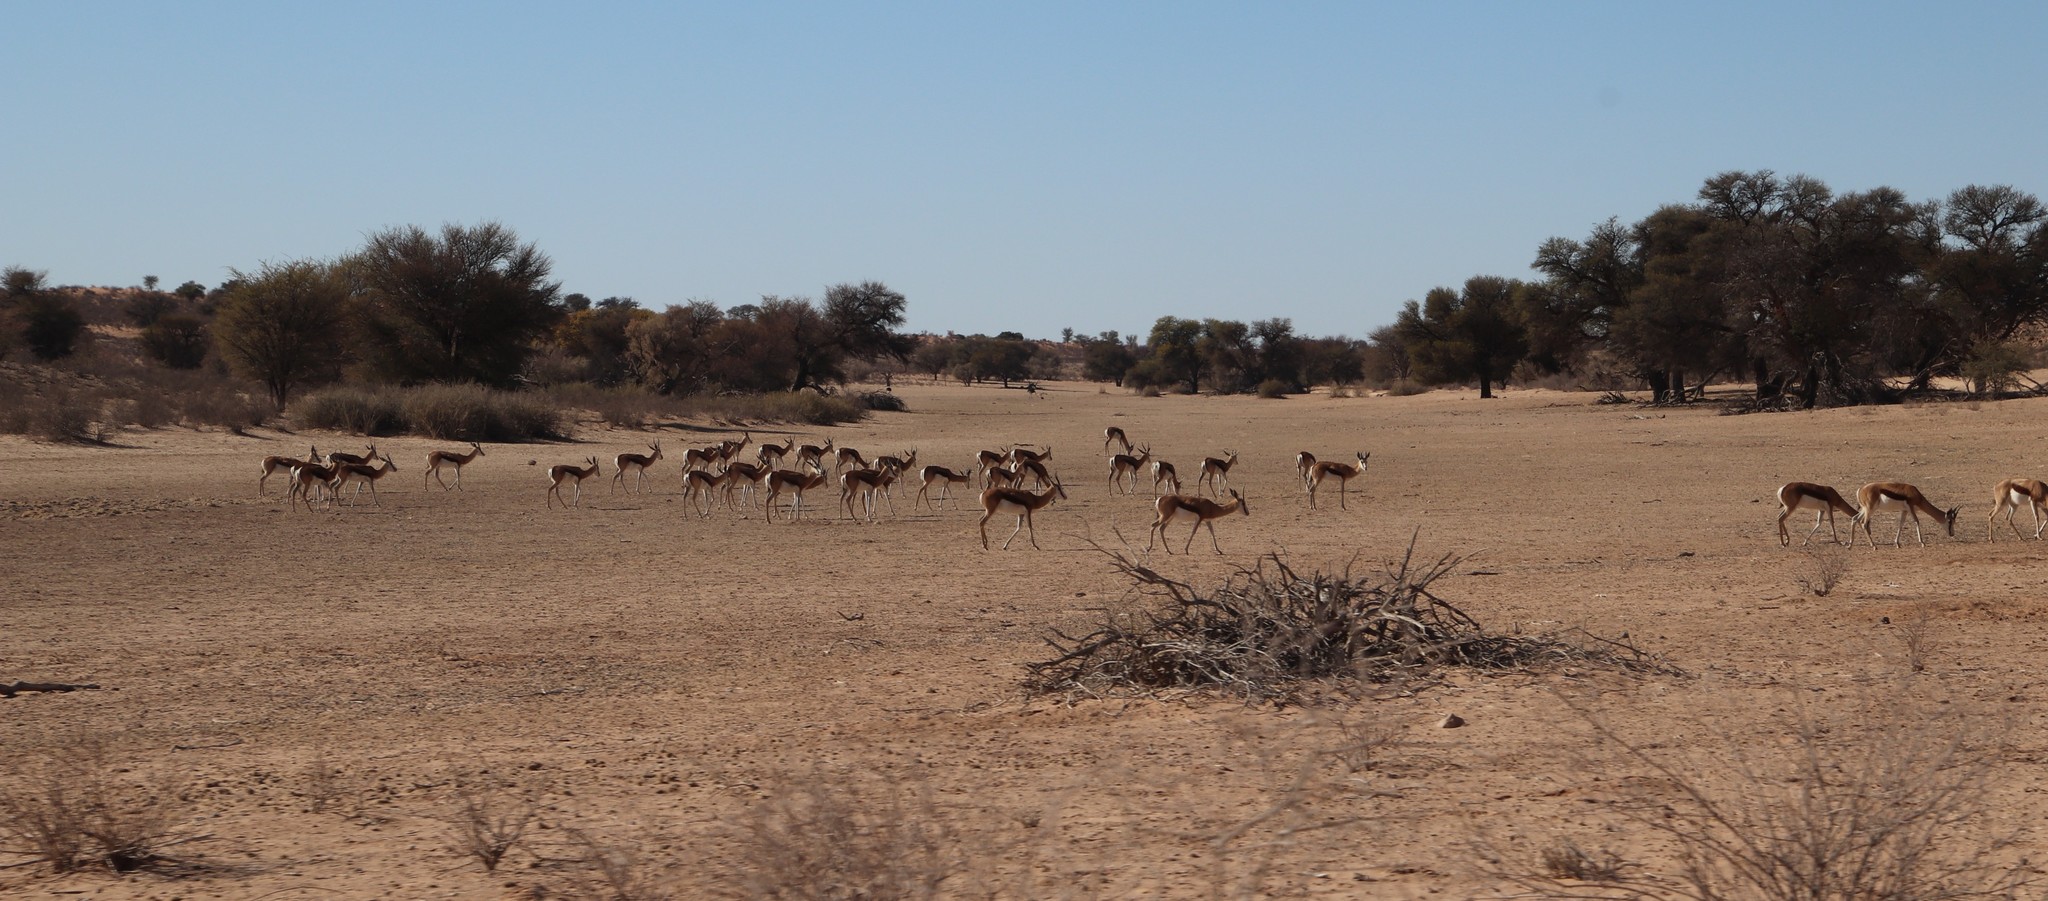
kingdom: Animalia
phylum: Chordata
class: Mammalia
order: Artiodactyla
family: Bovidae
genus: Antidorcas
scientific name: Antidorcas marsupialis
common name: Springbok
